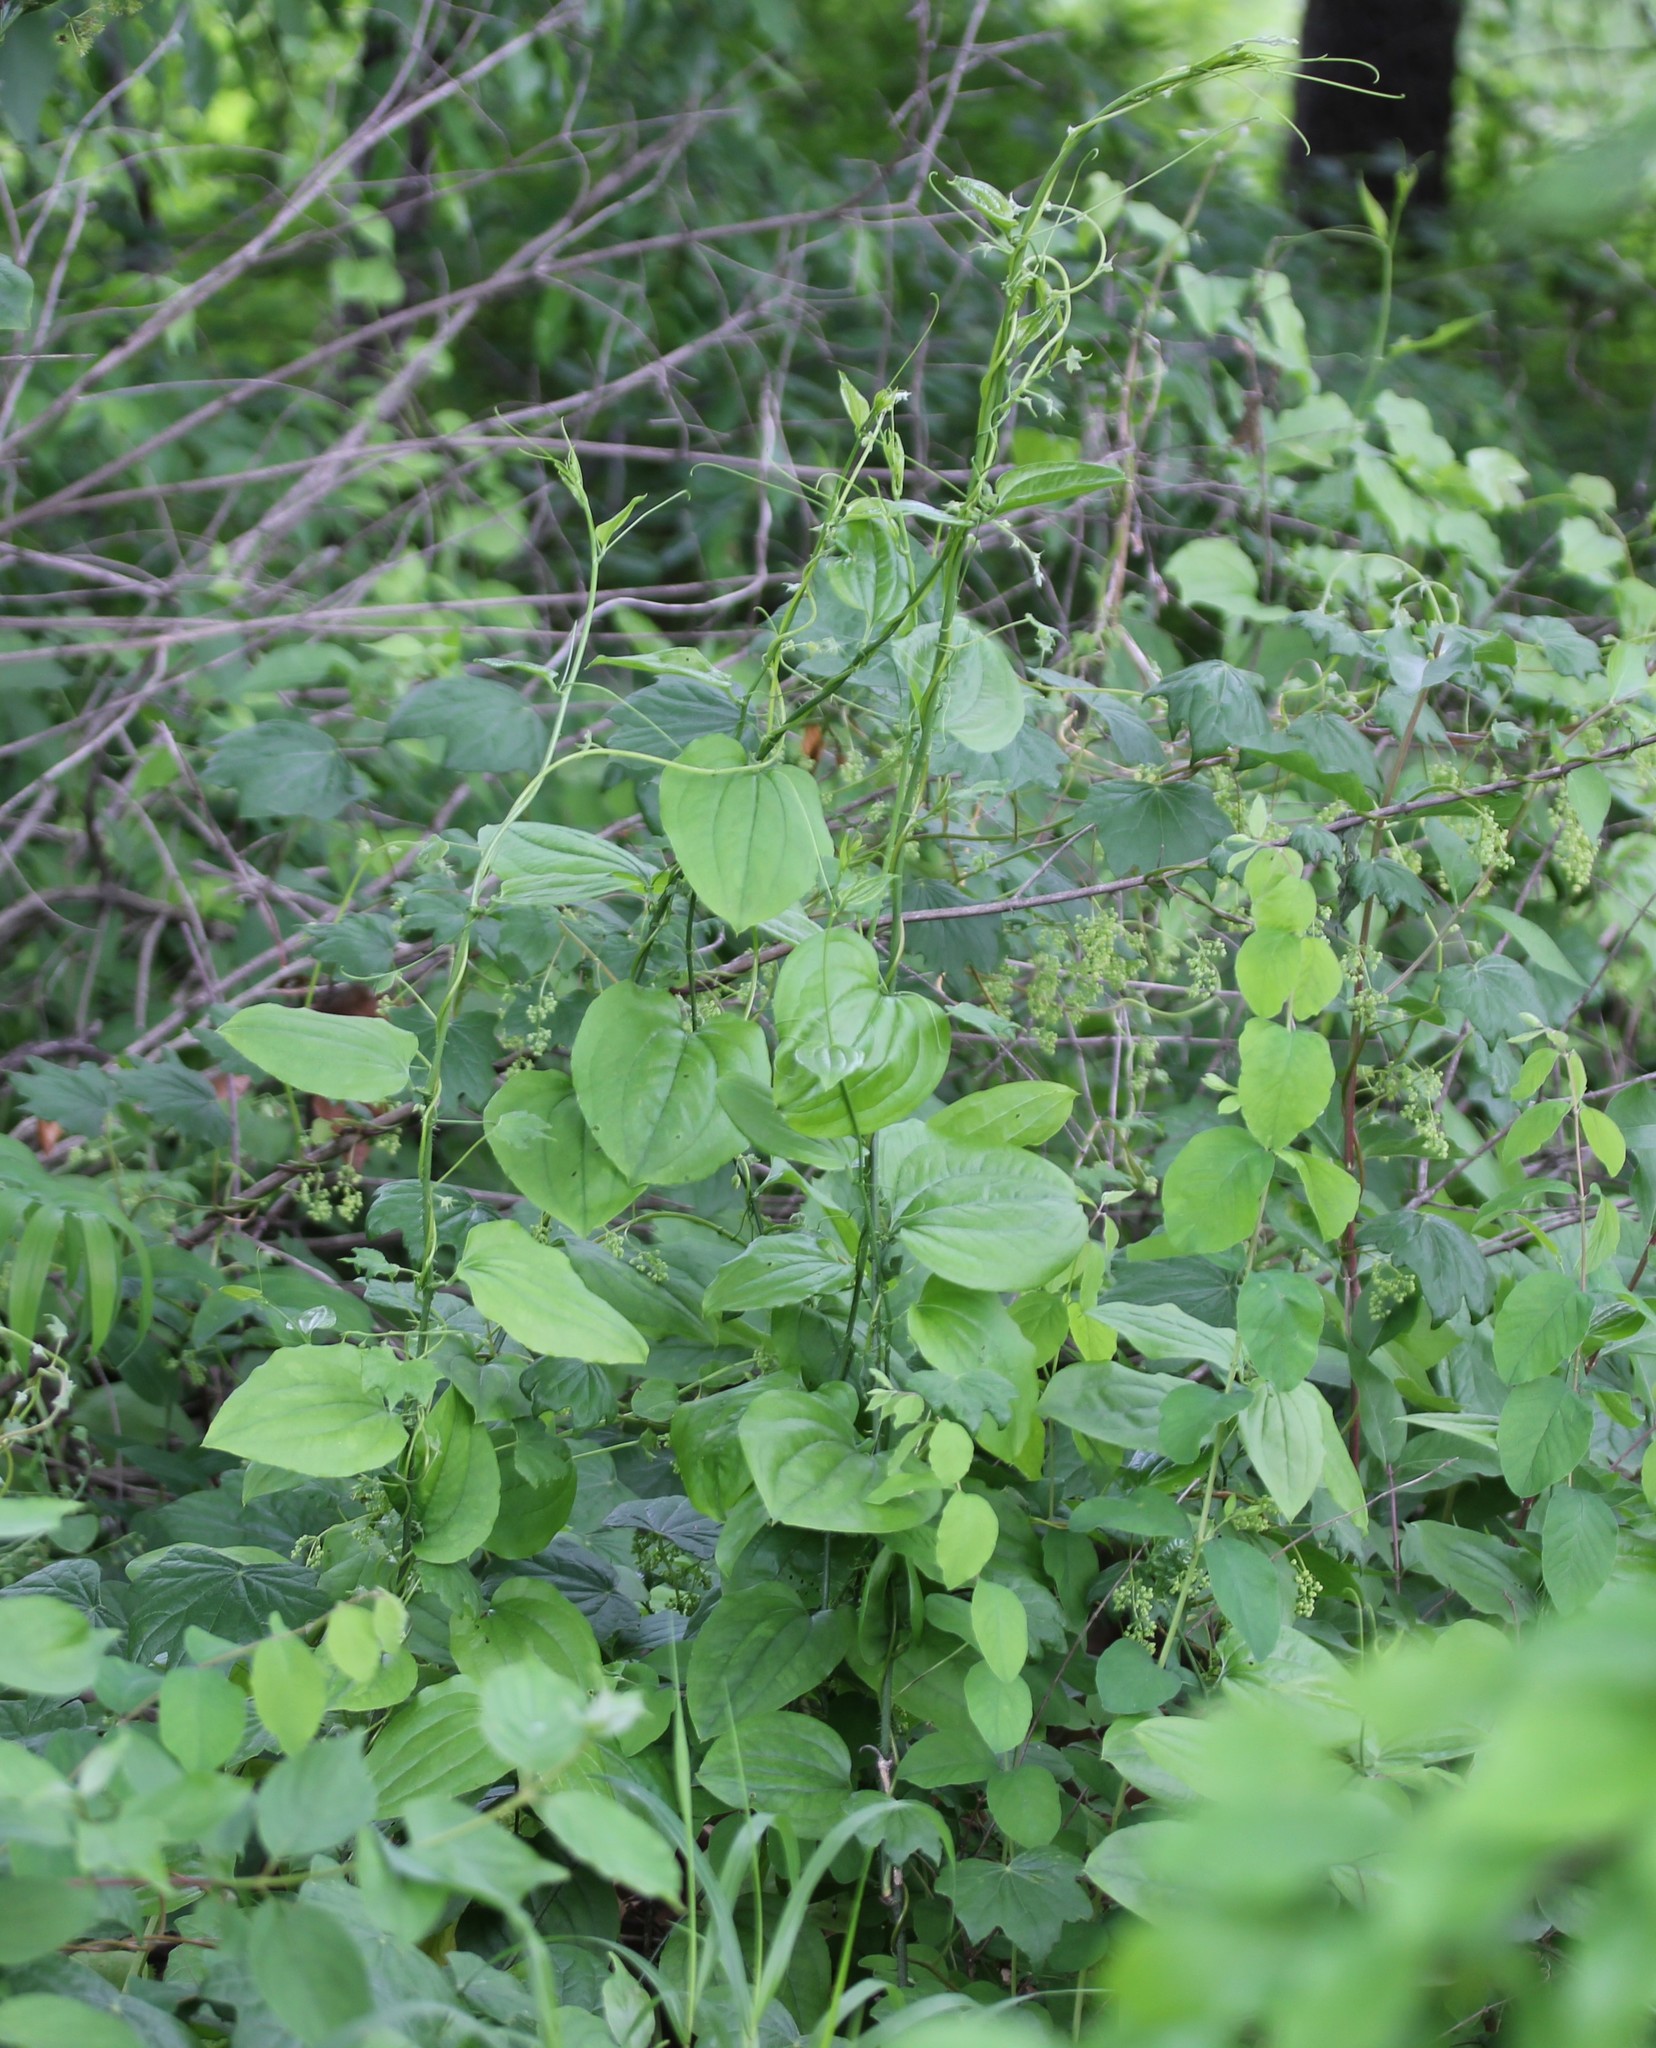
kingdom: Plantae
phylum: Tracheophyta
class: Liliopsida
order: Liliales
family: Smilacaceae
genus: Smilax
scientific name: Smilax tamnoides
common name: Hellfetter
